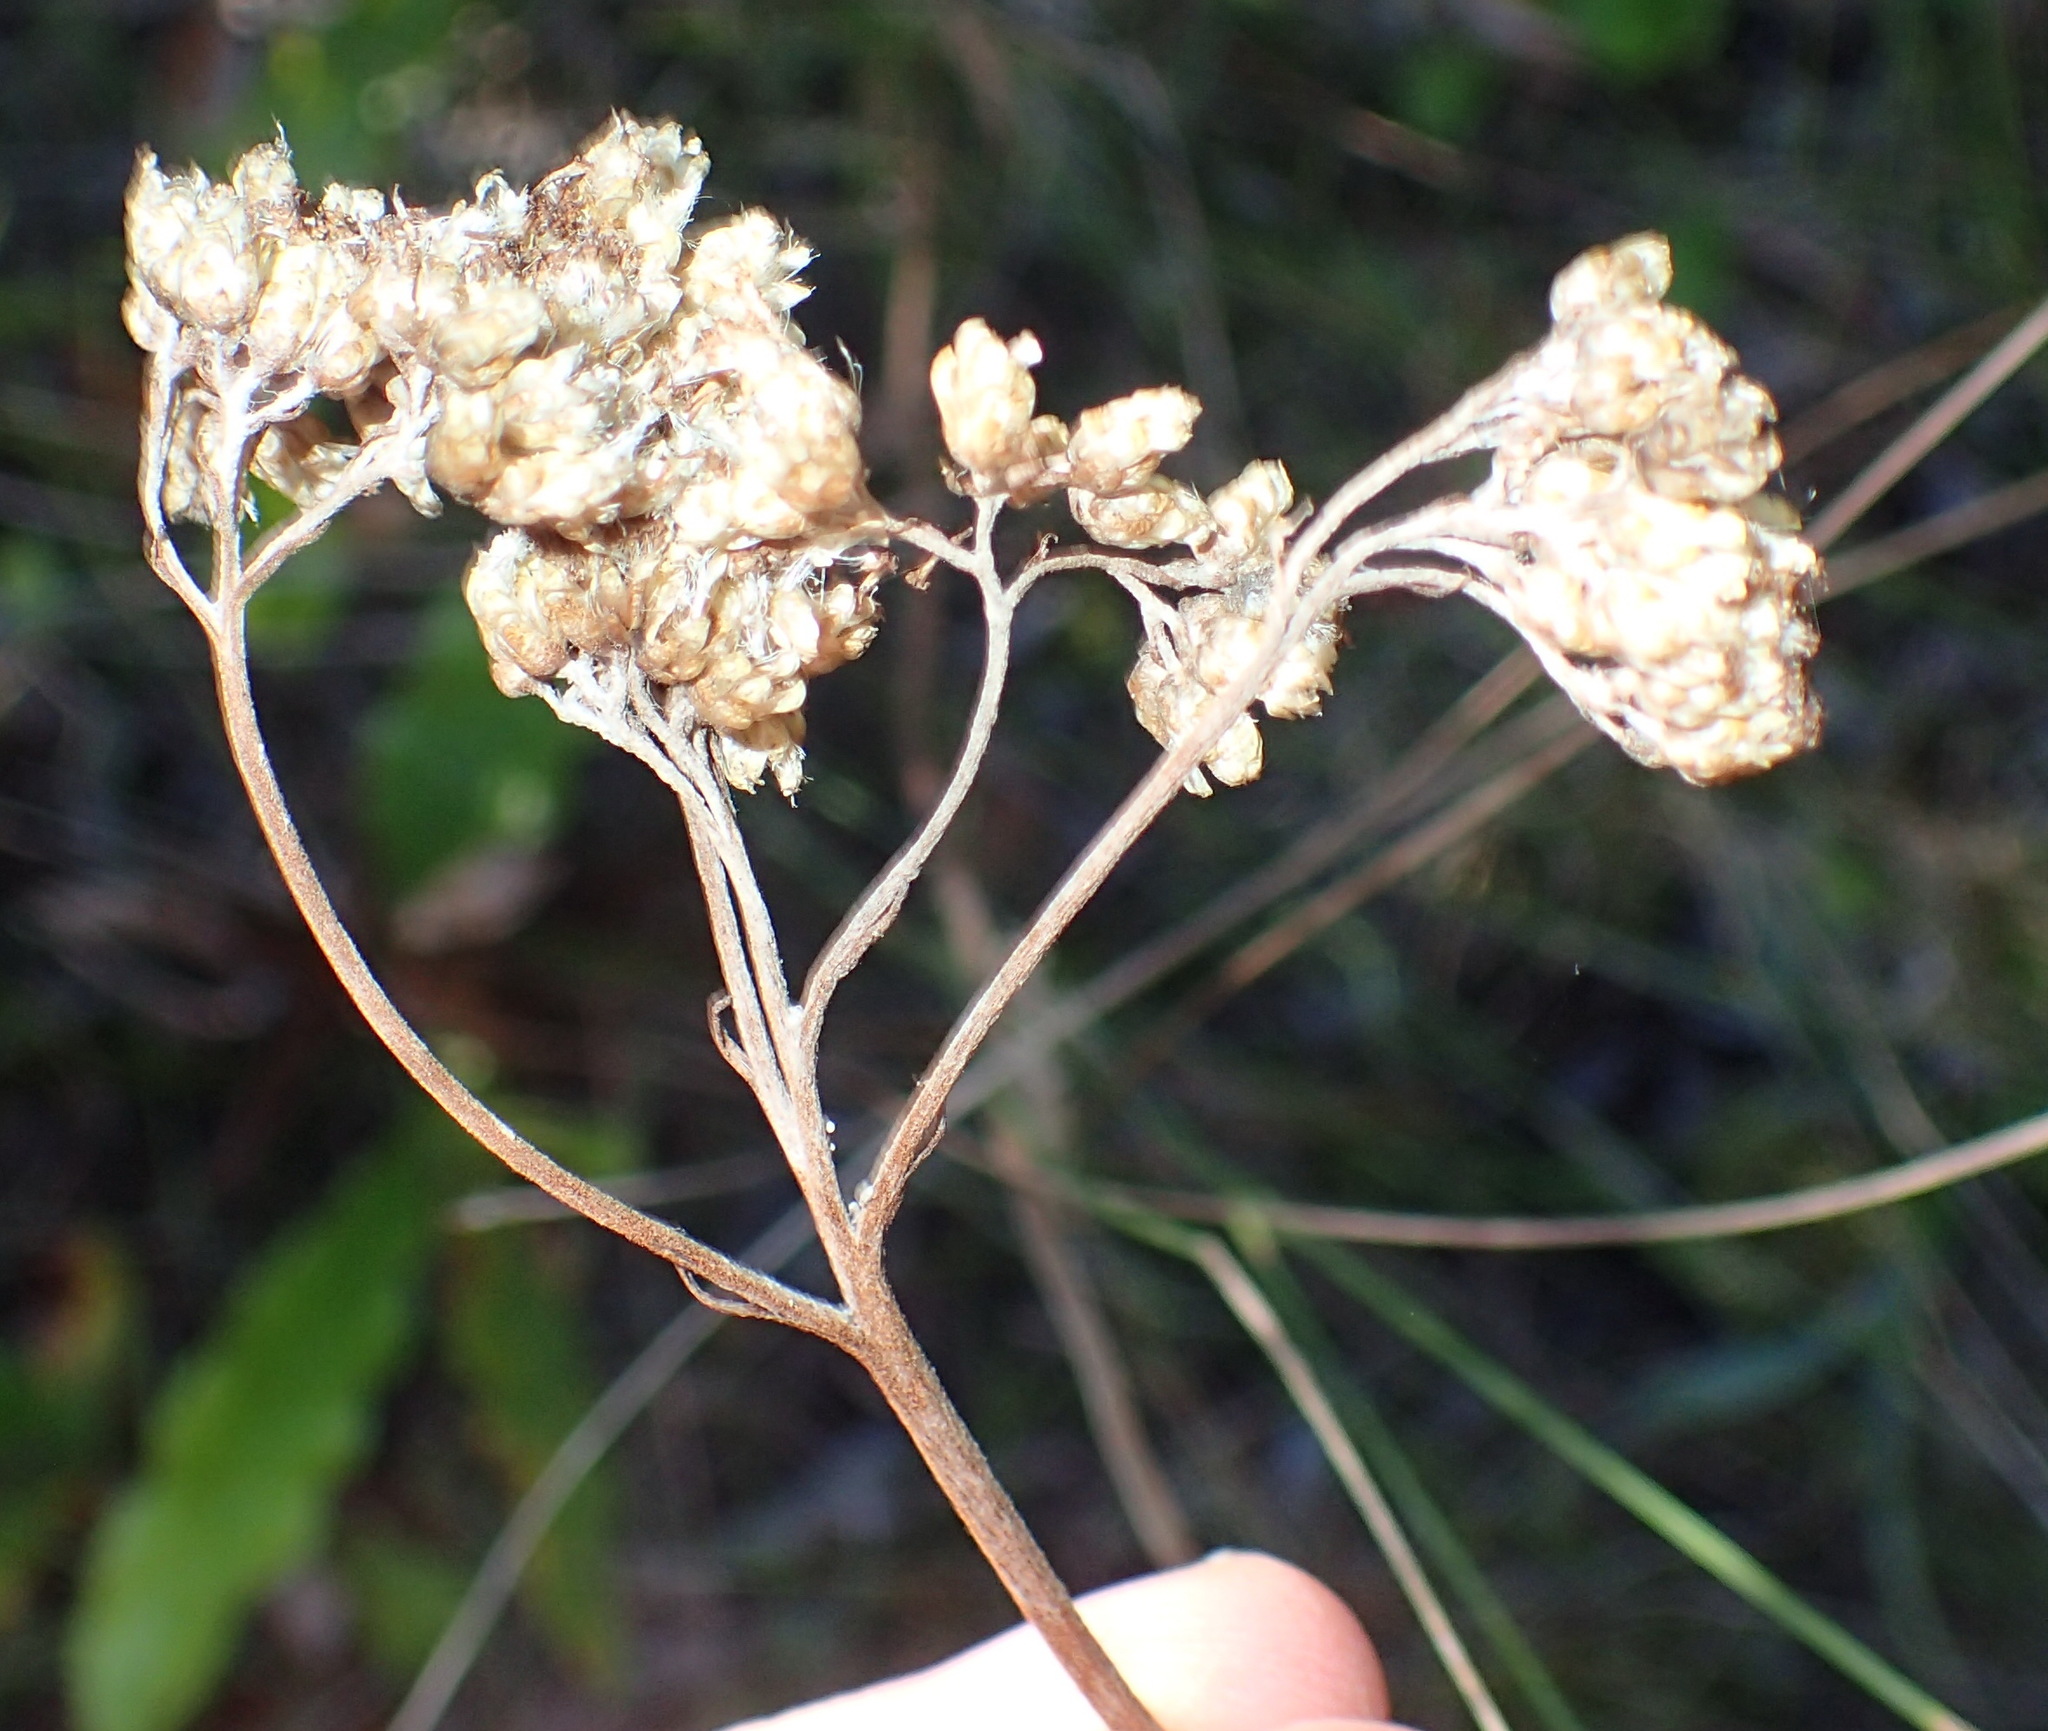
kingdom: Plantae
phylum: Tracheophyta
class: Magnoliopsida
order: Asterales
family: Asteraceae
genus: Helichrysum
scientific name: Helichrysum nudifolium
